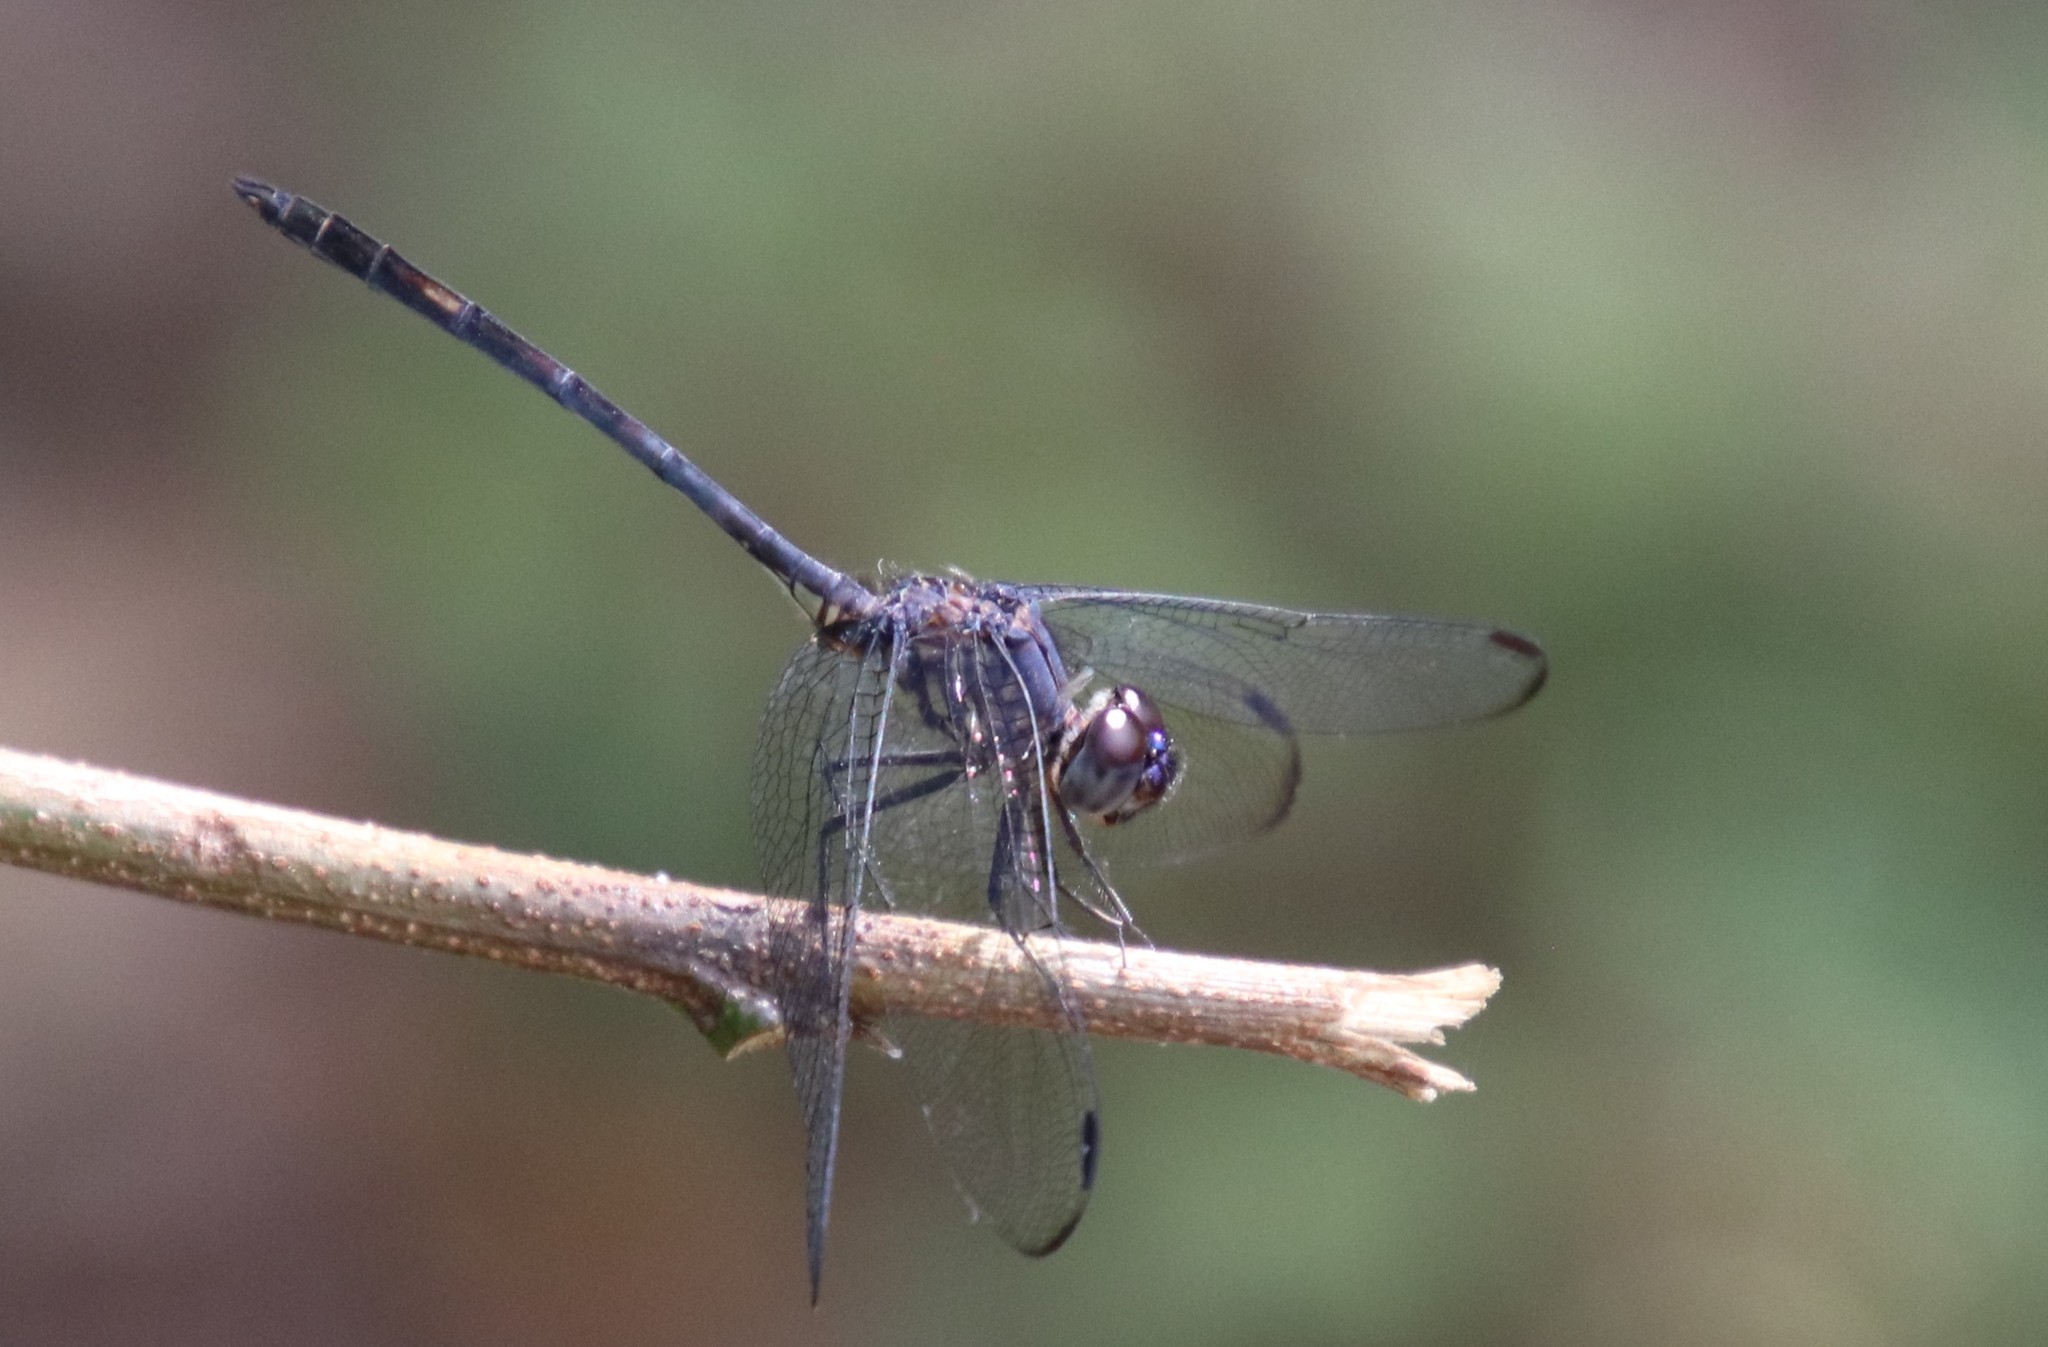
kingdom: Animalia
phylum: Arthropoda
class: Insecta
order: Odonata
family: Libellulidae
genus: Dythemis
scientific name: Dythemis nigrescens
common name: Black setwing
